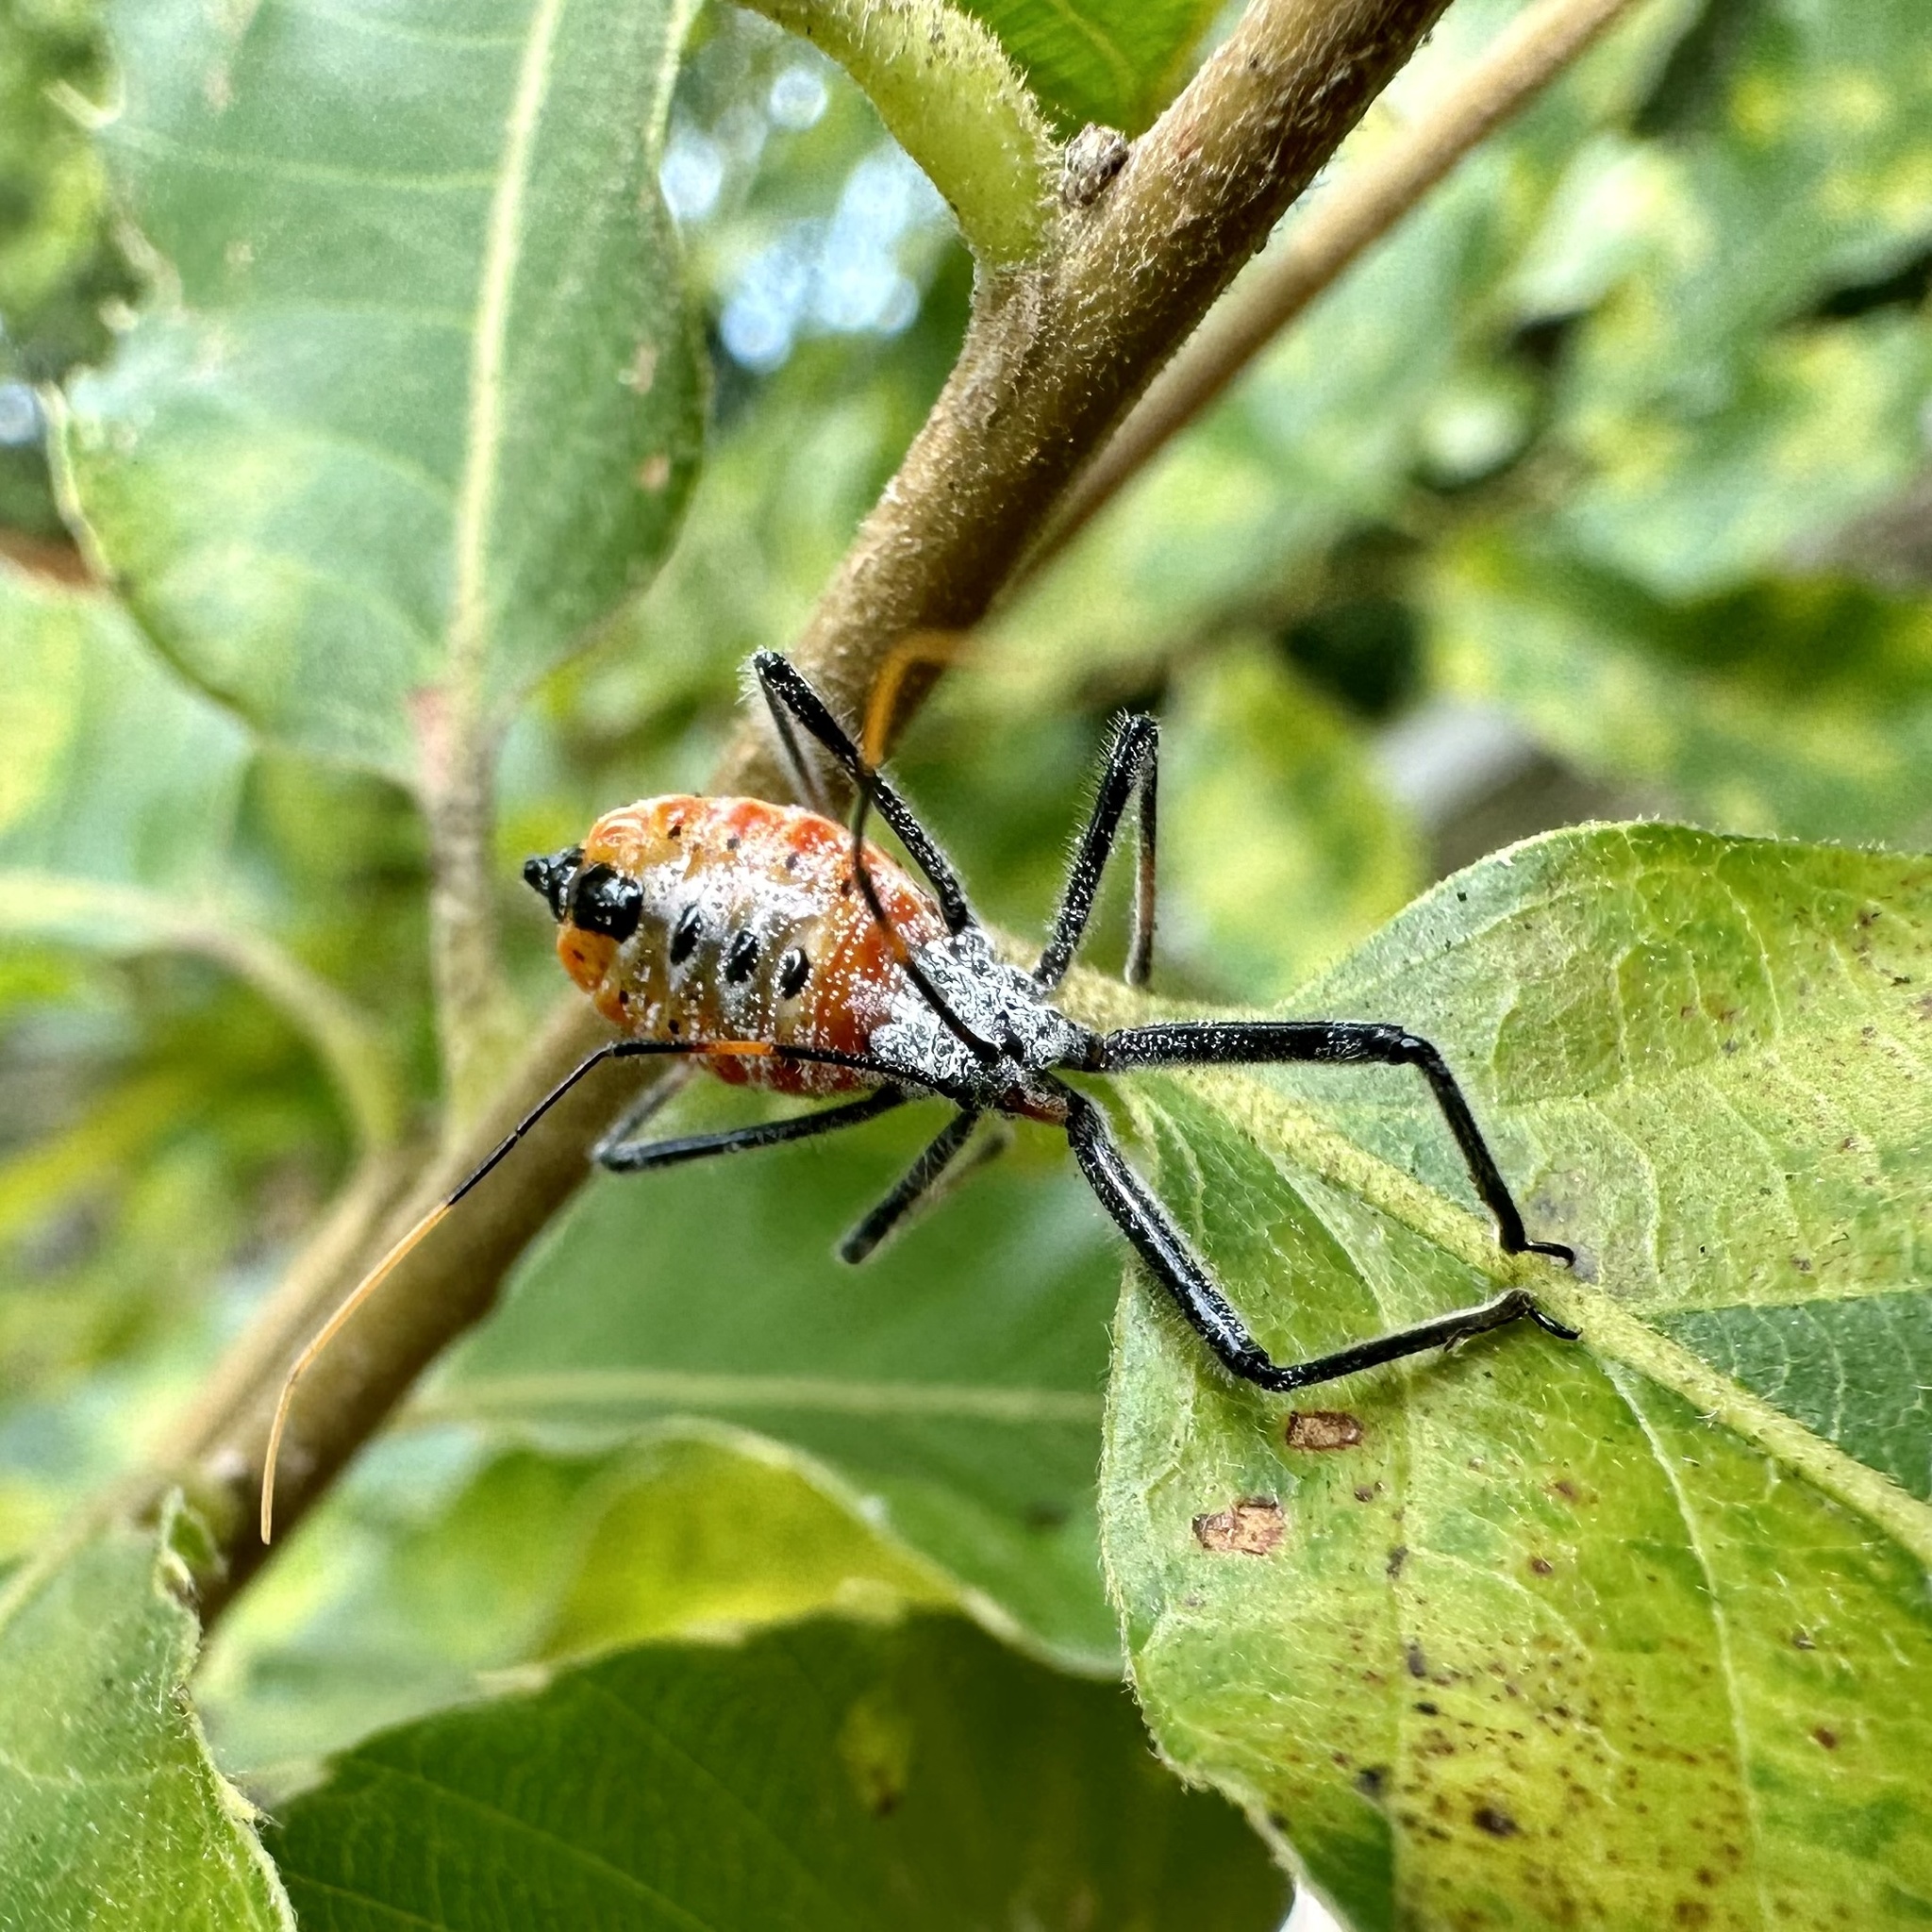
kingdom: Animalia
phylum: Arthropoda
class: Insecta
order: Hemiptera
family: Reduviidae
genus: Arilus
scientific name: Arilus cristatus
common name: North american wheel bug
